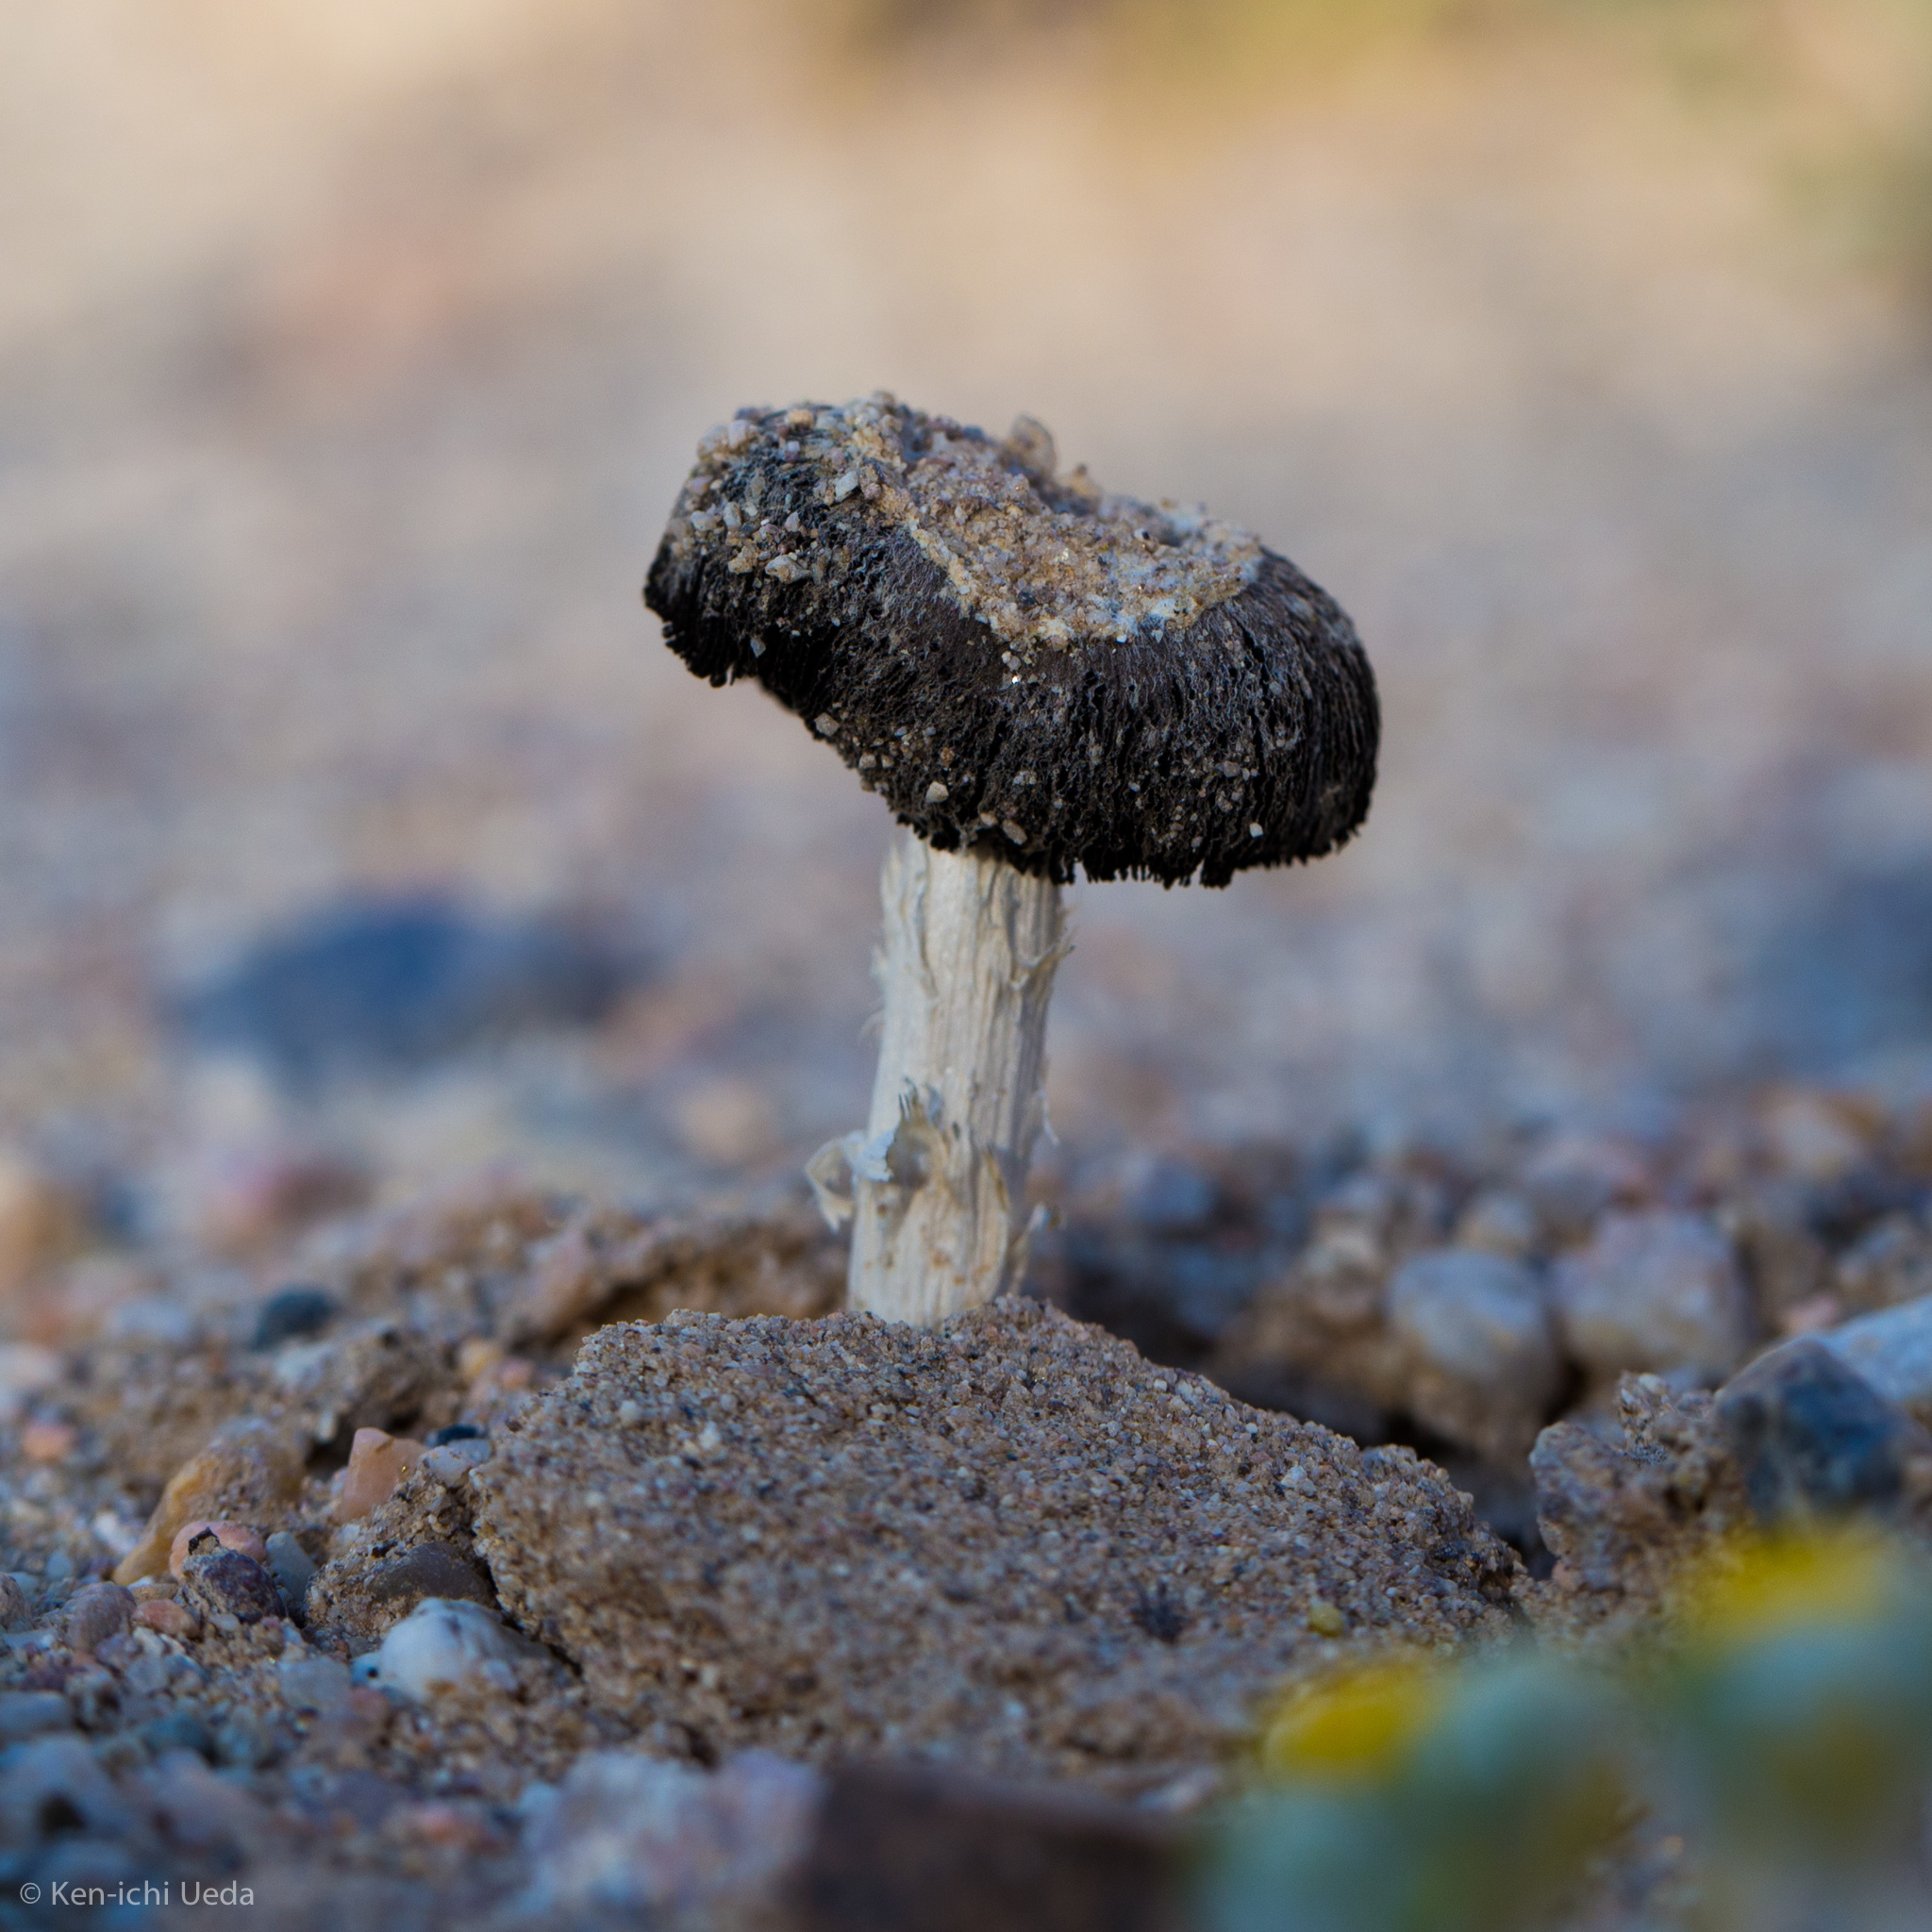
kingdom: Fungi
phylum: Basidiomycota
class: Agaricomycetes
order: Agaricales
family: Agaricaceae
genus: Montagnea
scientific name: Montagnea arenaria
